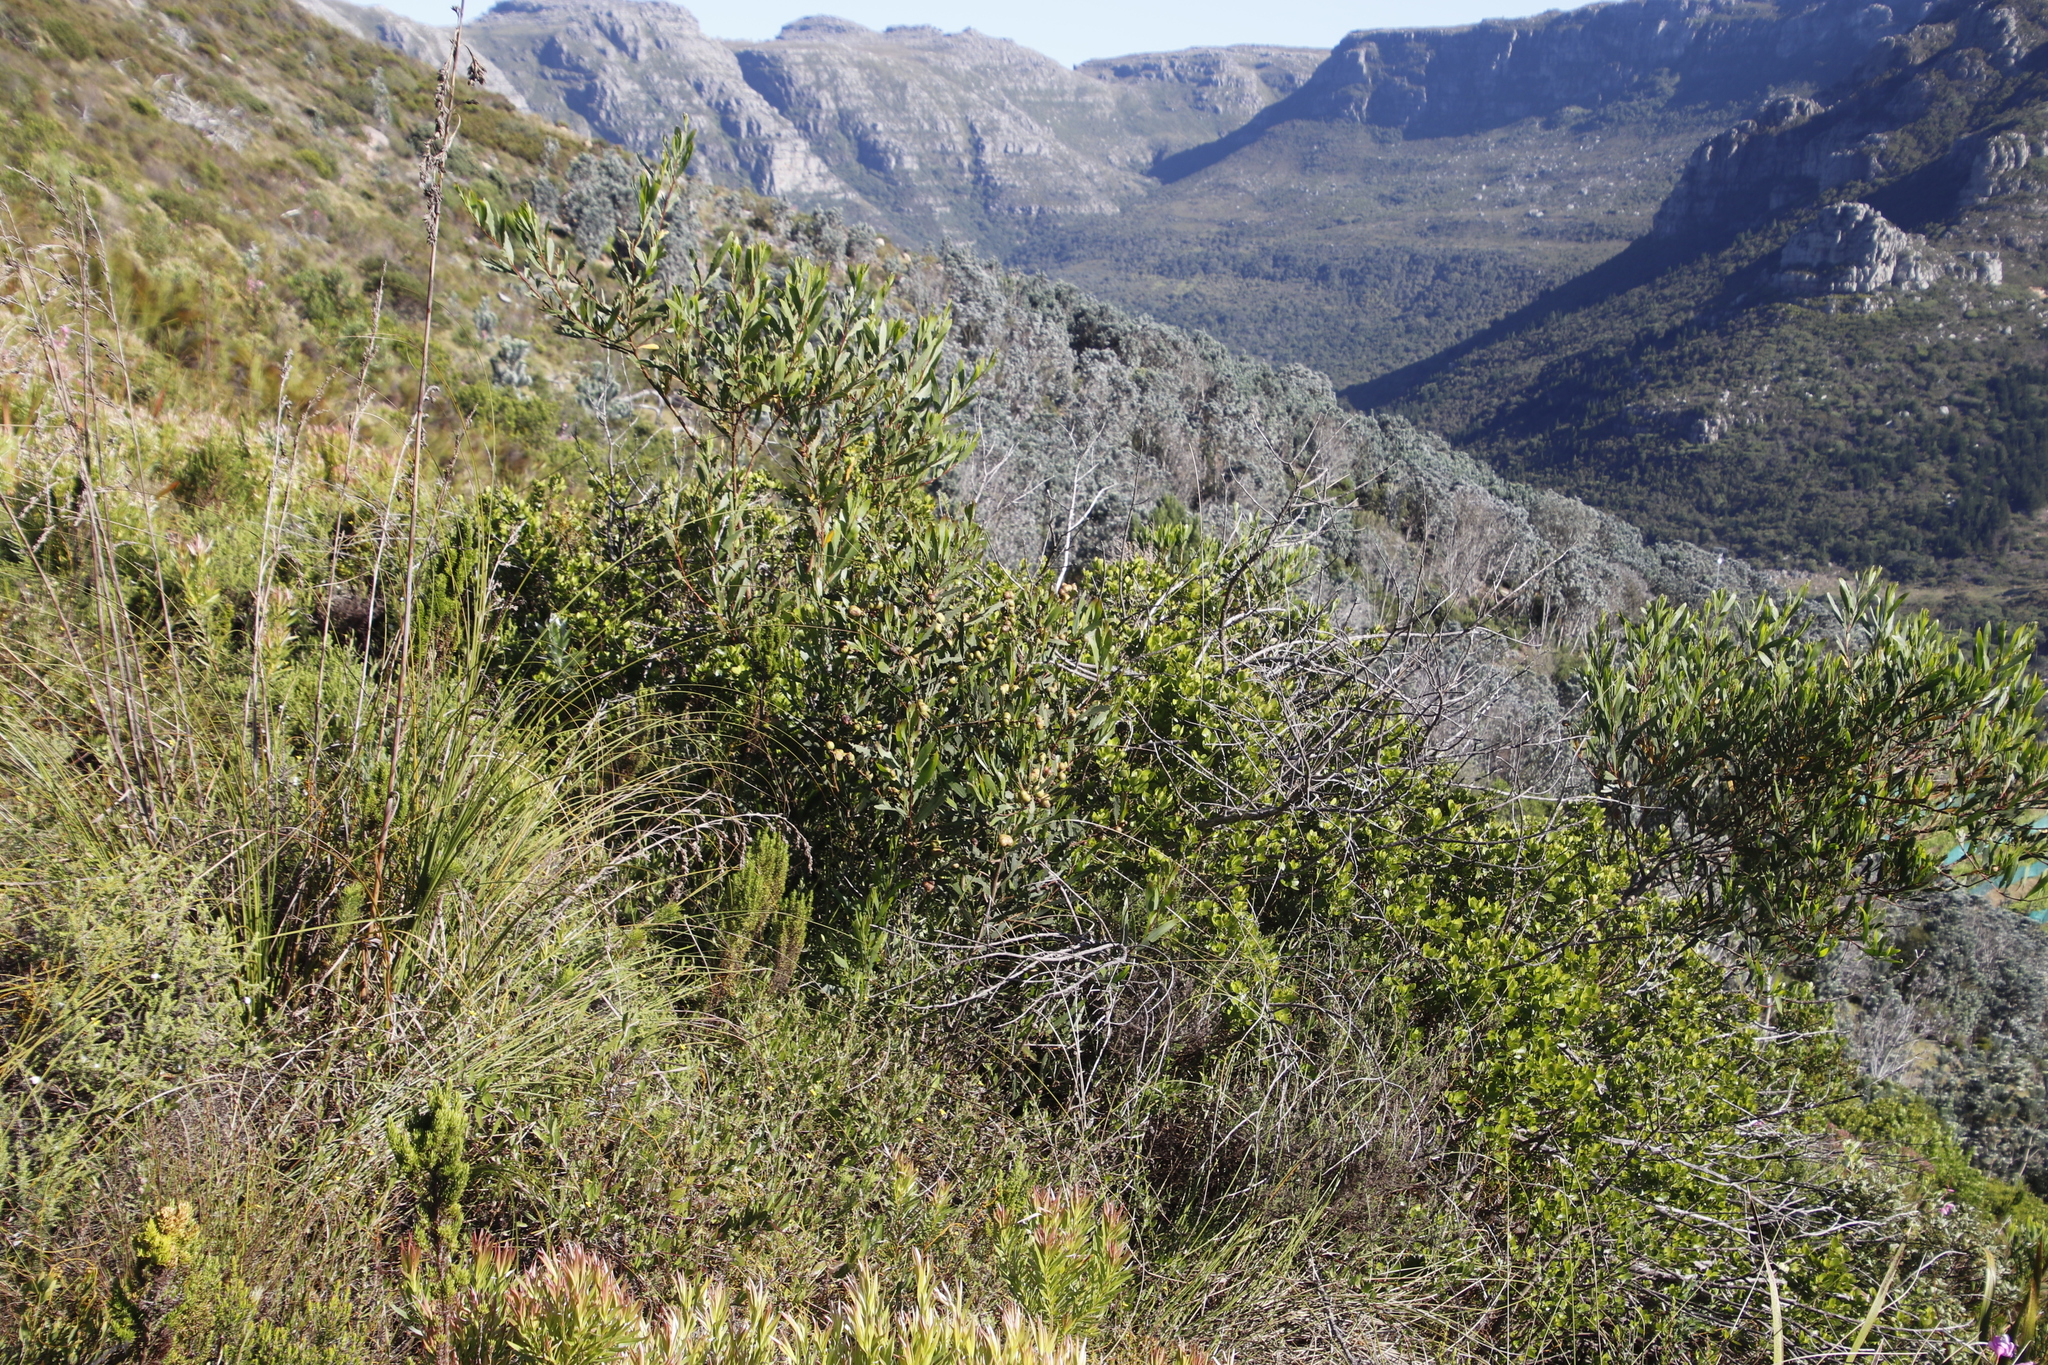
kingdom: Plantae
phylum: Tracheophyta
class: Magnoliopsida
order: Sapindales
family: Anacardiaceae
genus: Searsia
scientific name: Searsia lucida
